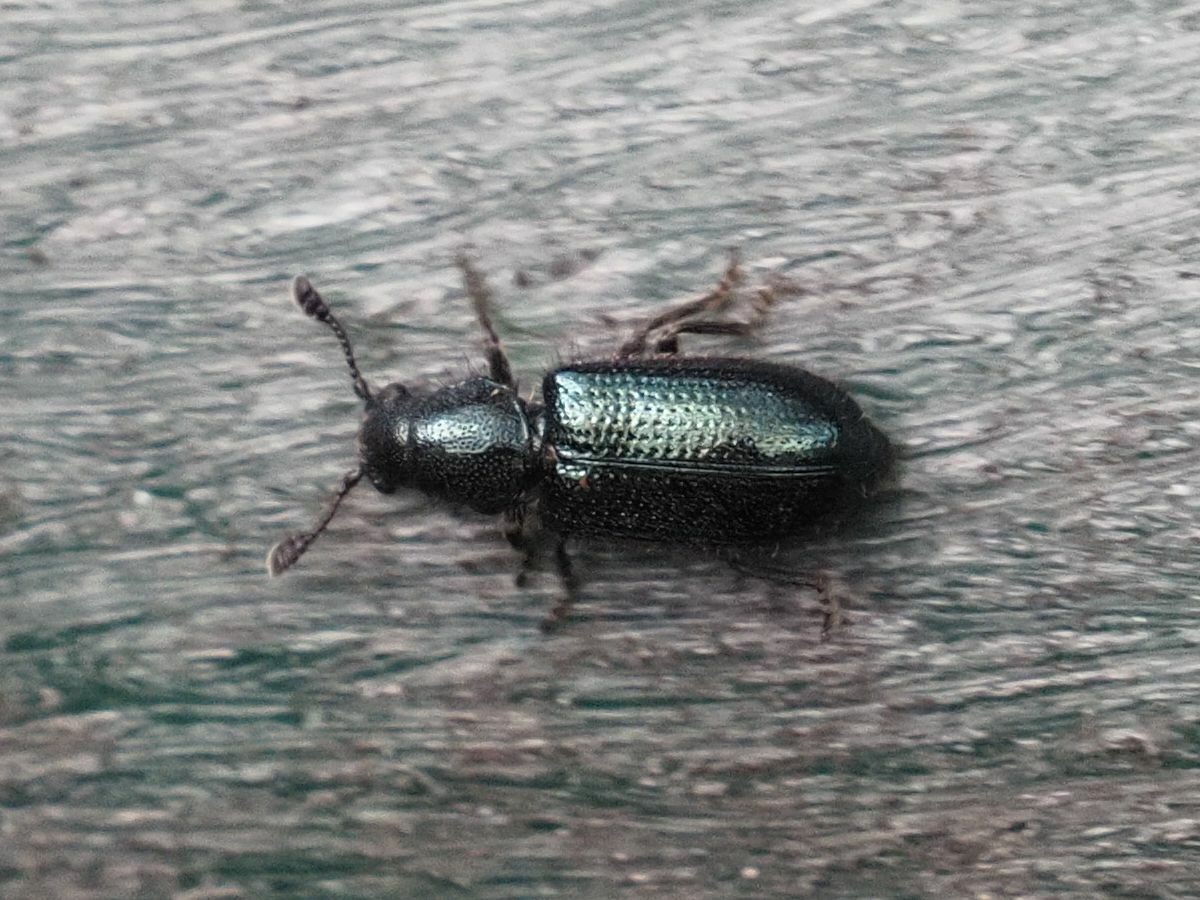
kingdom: Animalia
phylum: Arthropoda
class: Insecta
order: Coleoptera
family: Cleridae
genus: Necrobia
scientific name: Necrobia violacea
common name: Violet checkered beetle
